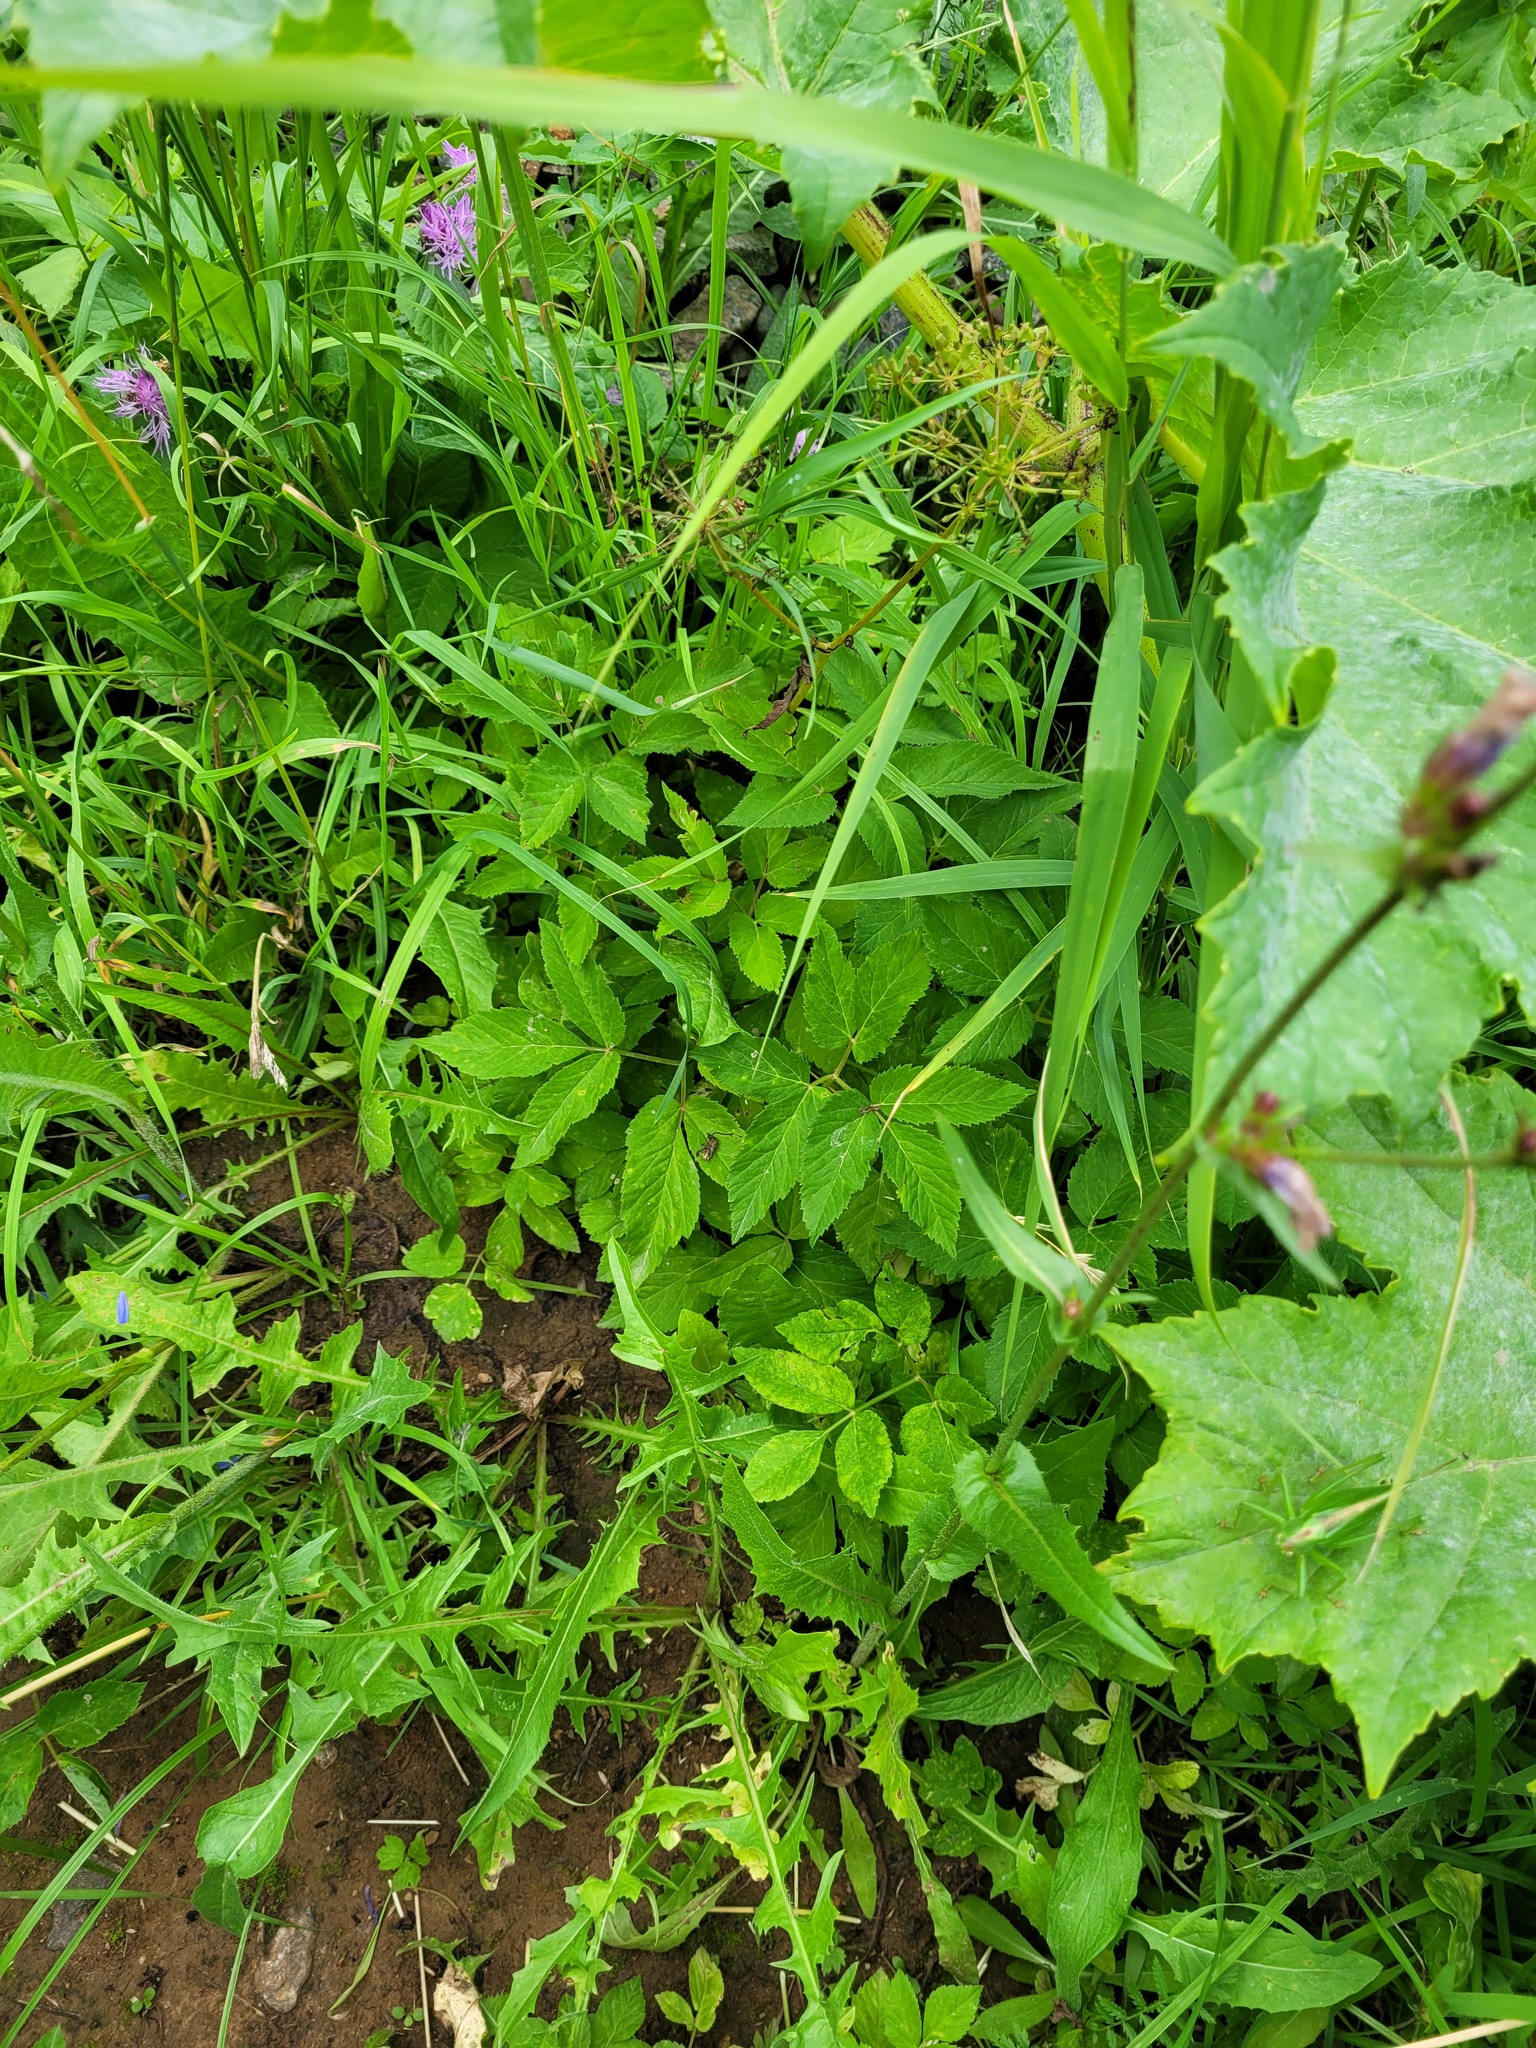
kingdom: Plantae
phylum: Tracheophyta
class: Magnoliopsida
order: Apiales
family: Apiaceae
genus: Aegopodium
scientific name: Aegopodium podagraria
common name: Ground-elder
